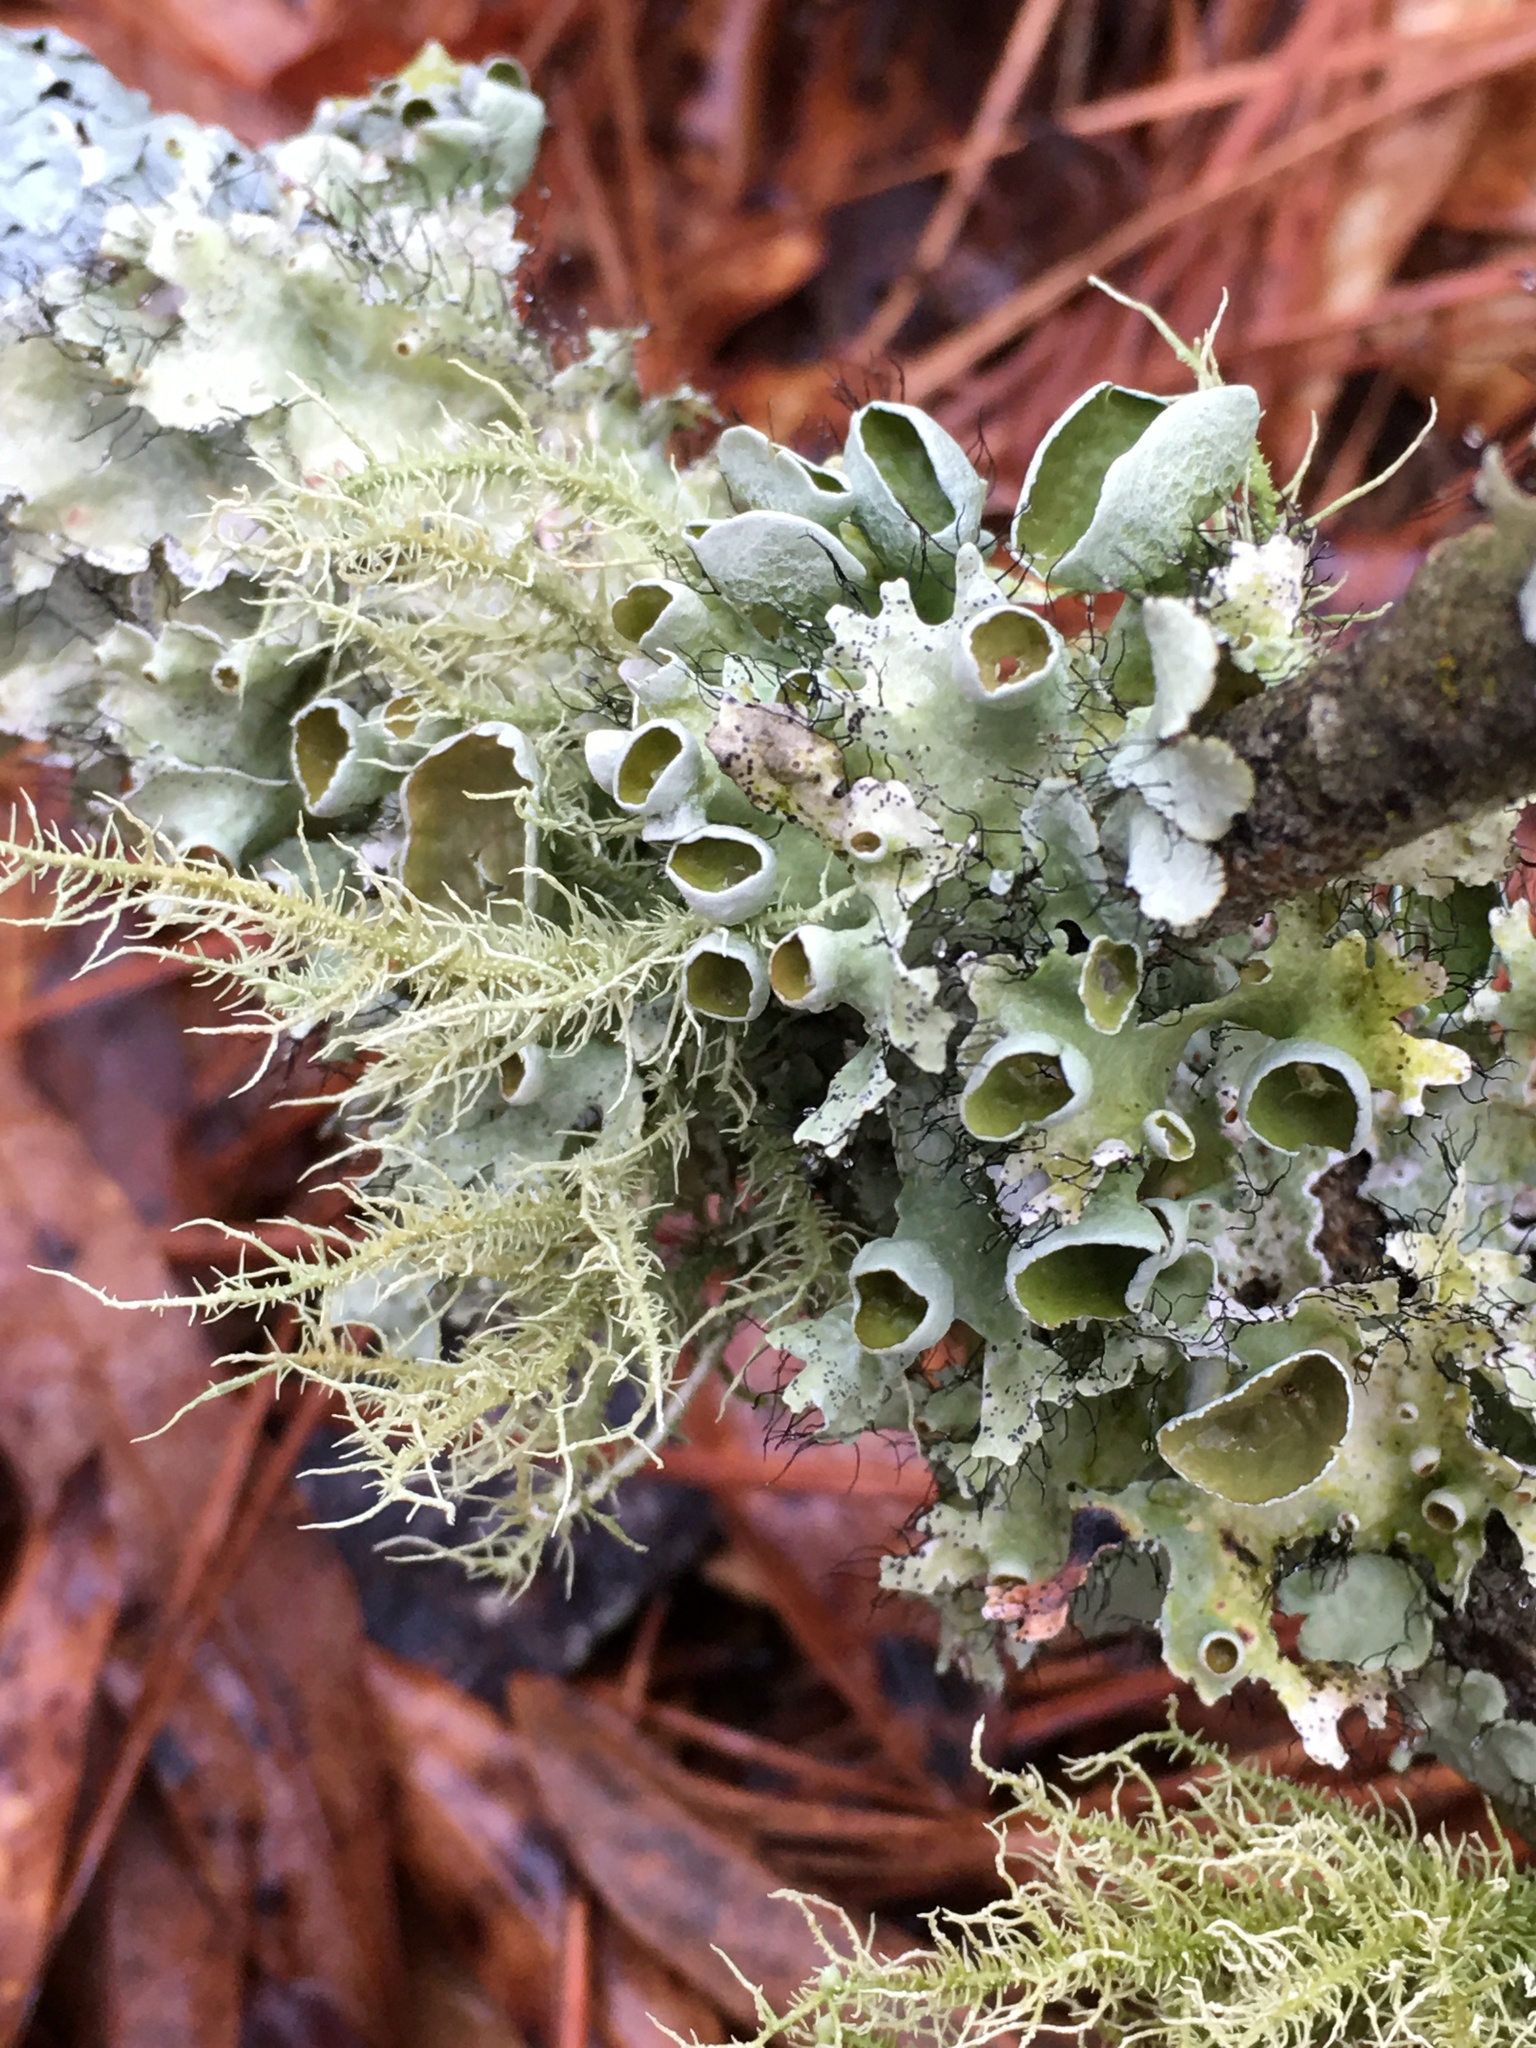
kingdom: Fungi
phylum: Ascomycota
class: Lecanoromycetes
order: Lecanorales
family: Parmeliaceae
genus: Usnea
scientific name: Usnea strigosa
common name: Bushy beard lichen
